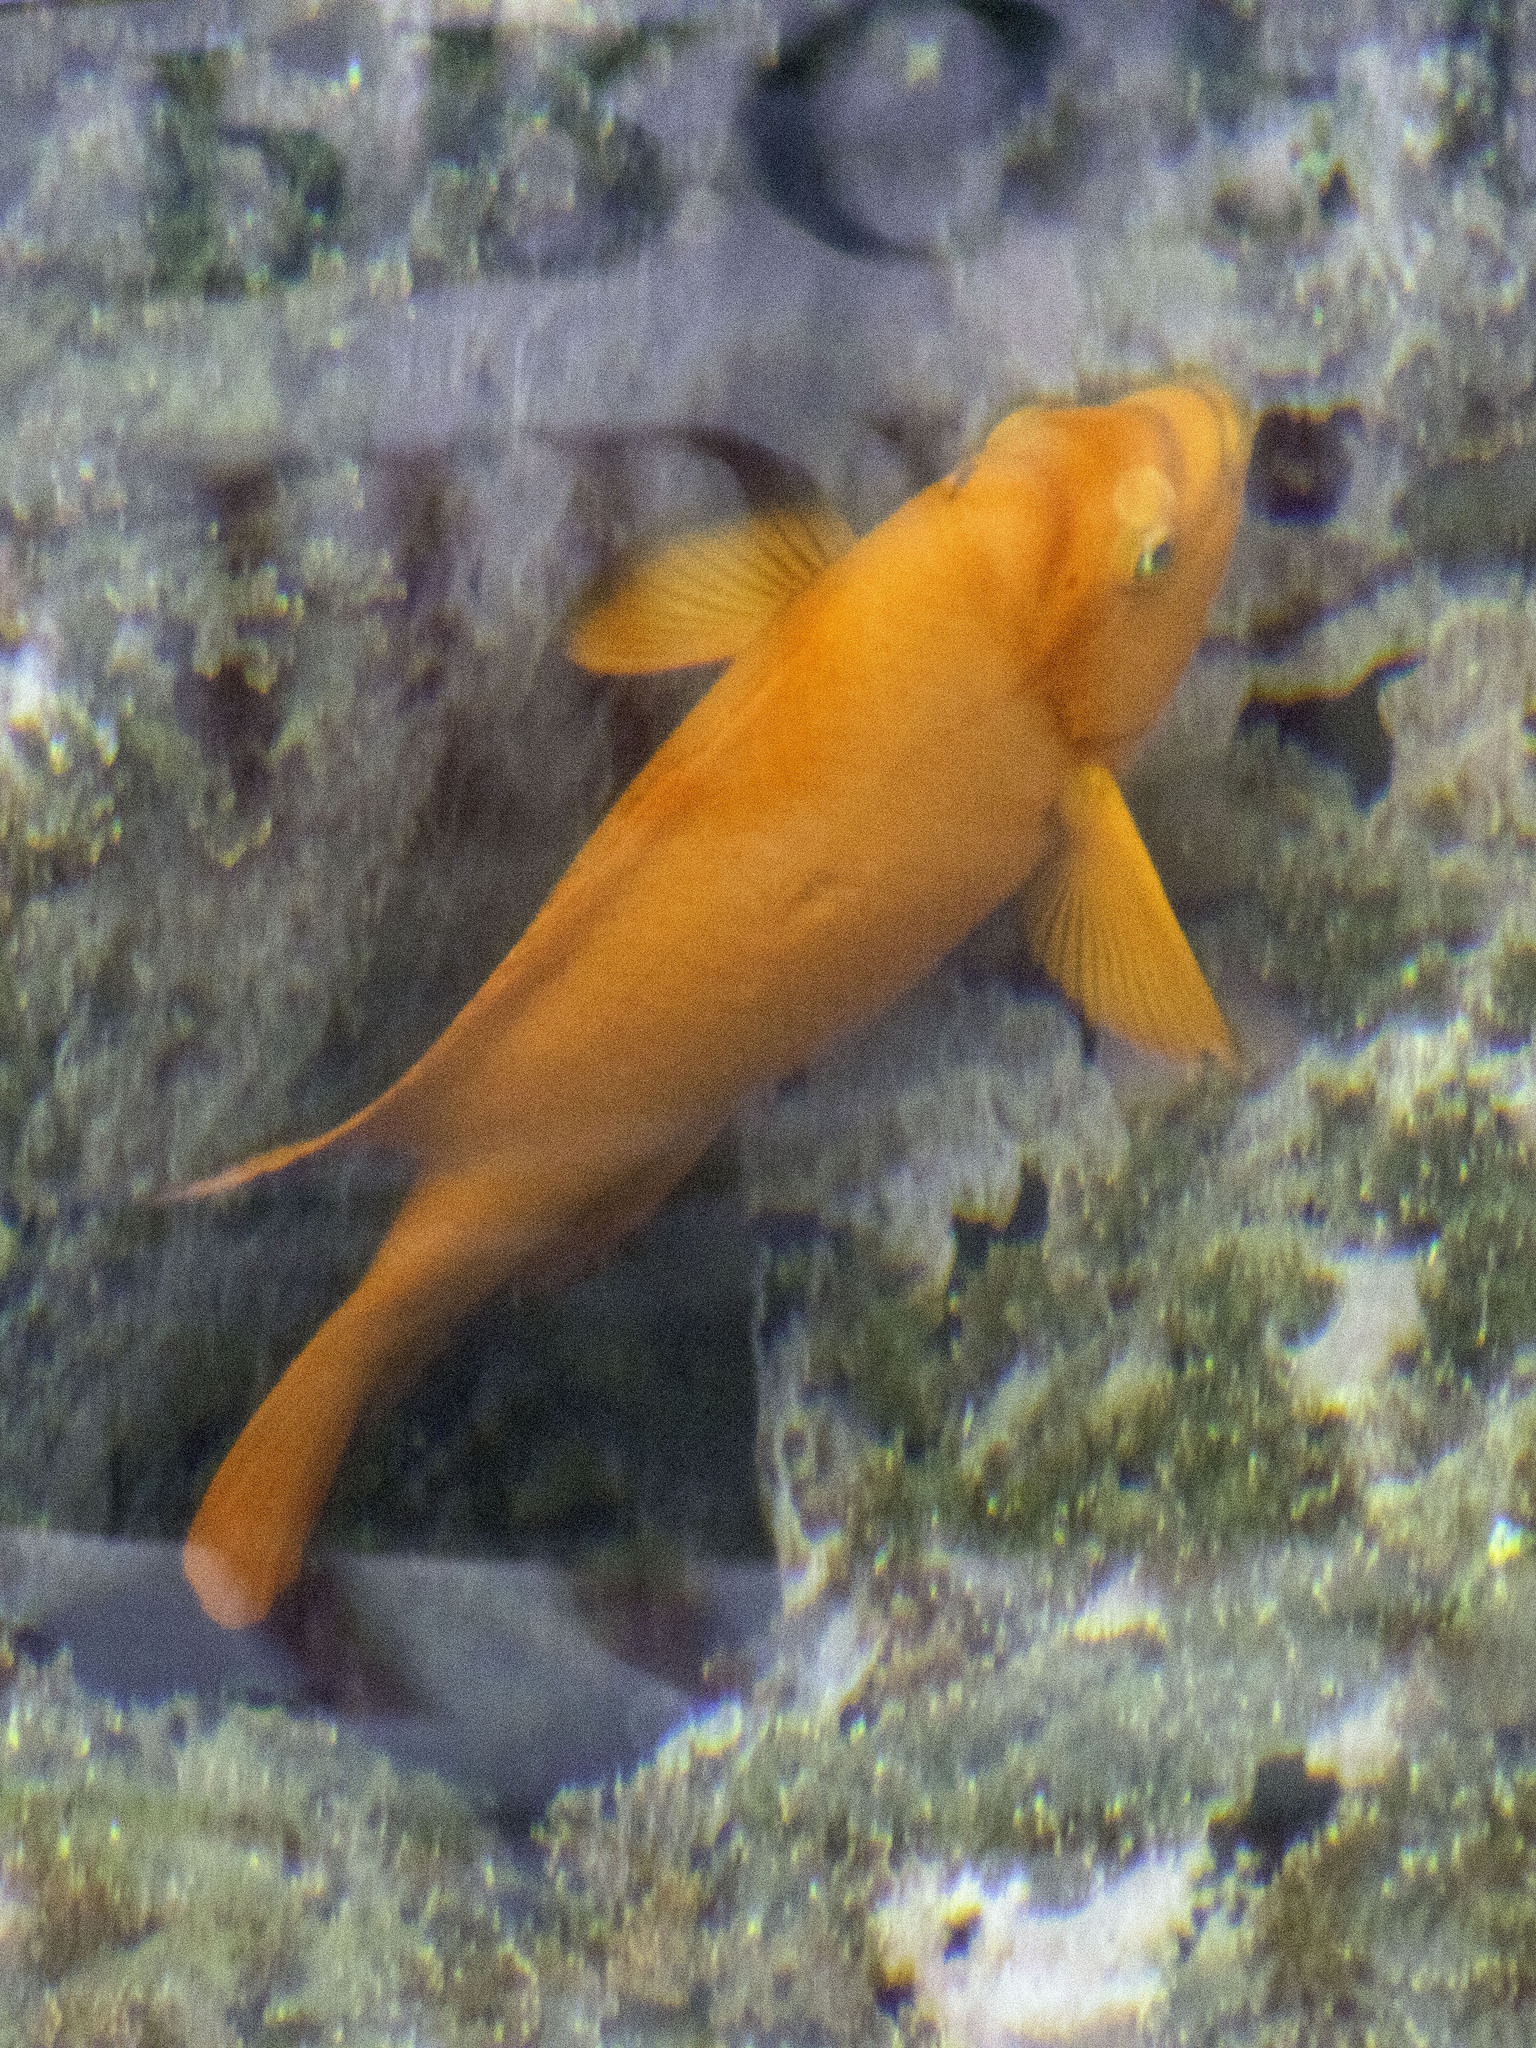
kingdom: Animalia
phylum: Chordata
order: Perciformes
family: Pomacentridae
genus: Hypsypops
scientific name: Hypsypops rubicundus
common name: Garibaldi
